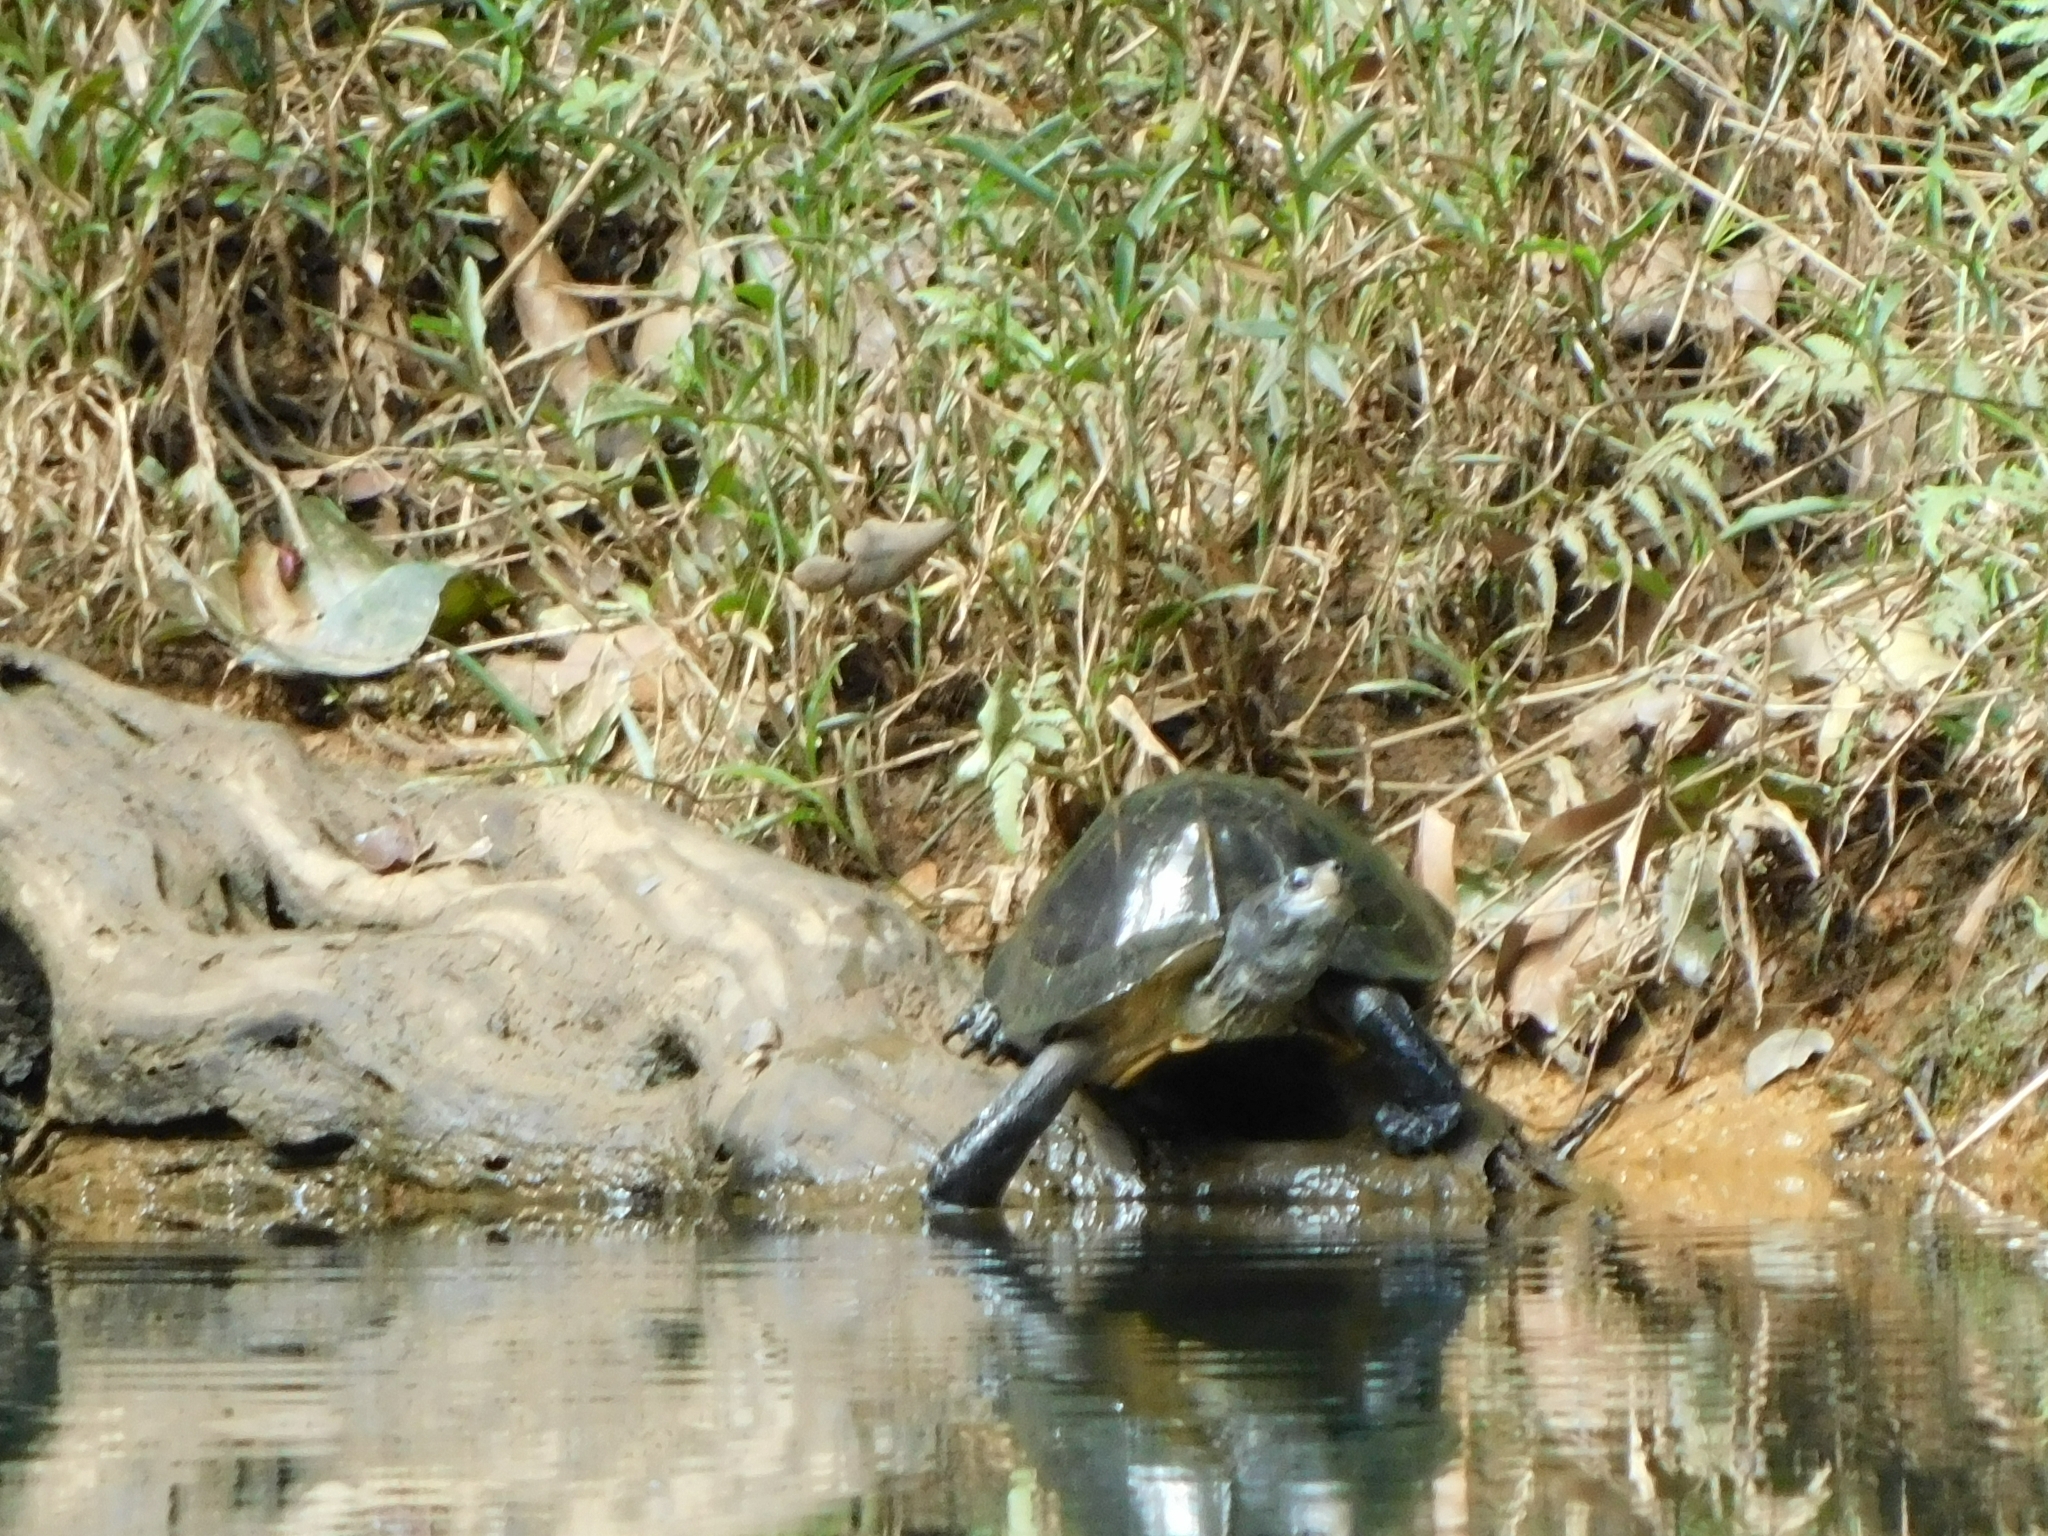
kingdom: Animalia
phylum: Chordata
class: Testudines
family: Geoemydidae
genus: Melanochelys
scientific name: Melanochelys trijuga
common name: Indian black turtle
